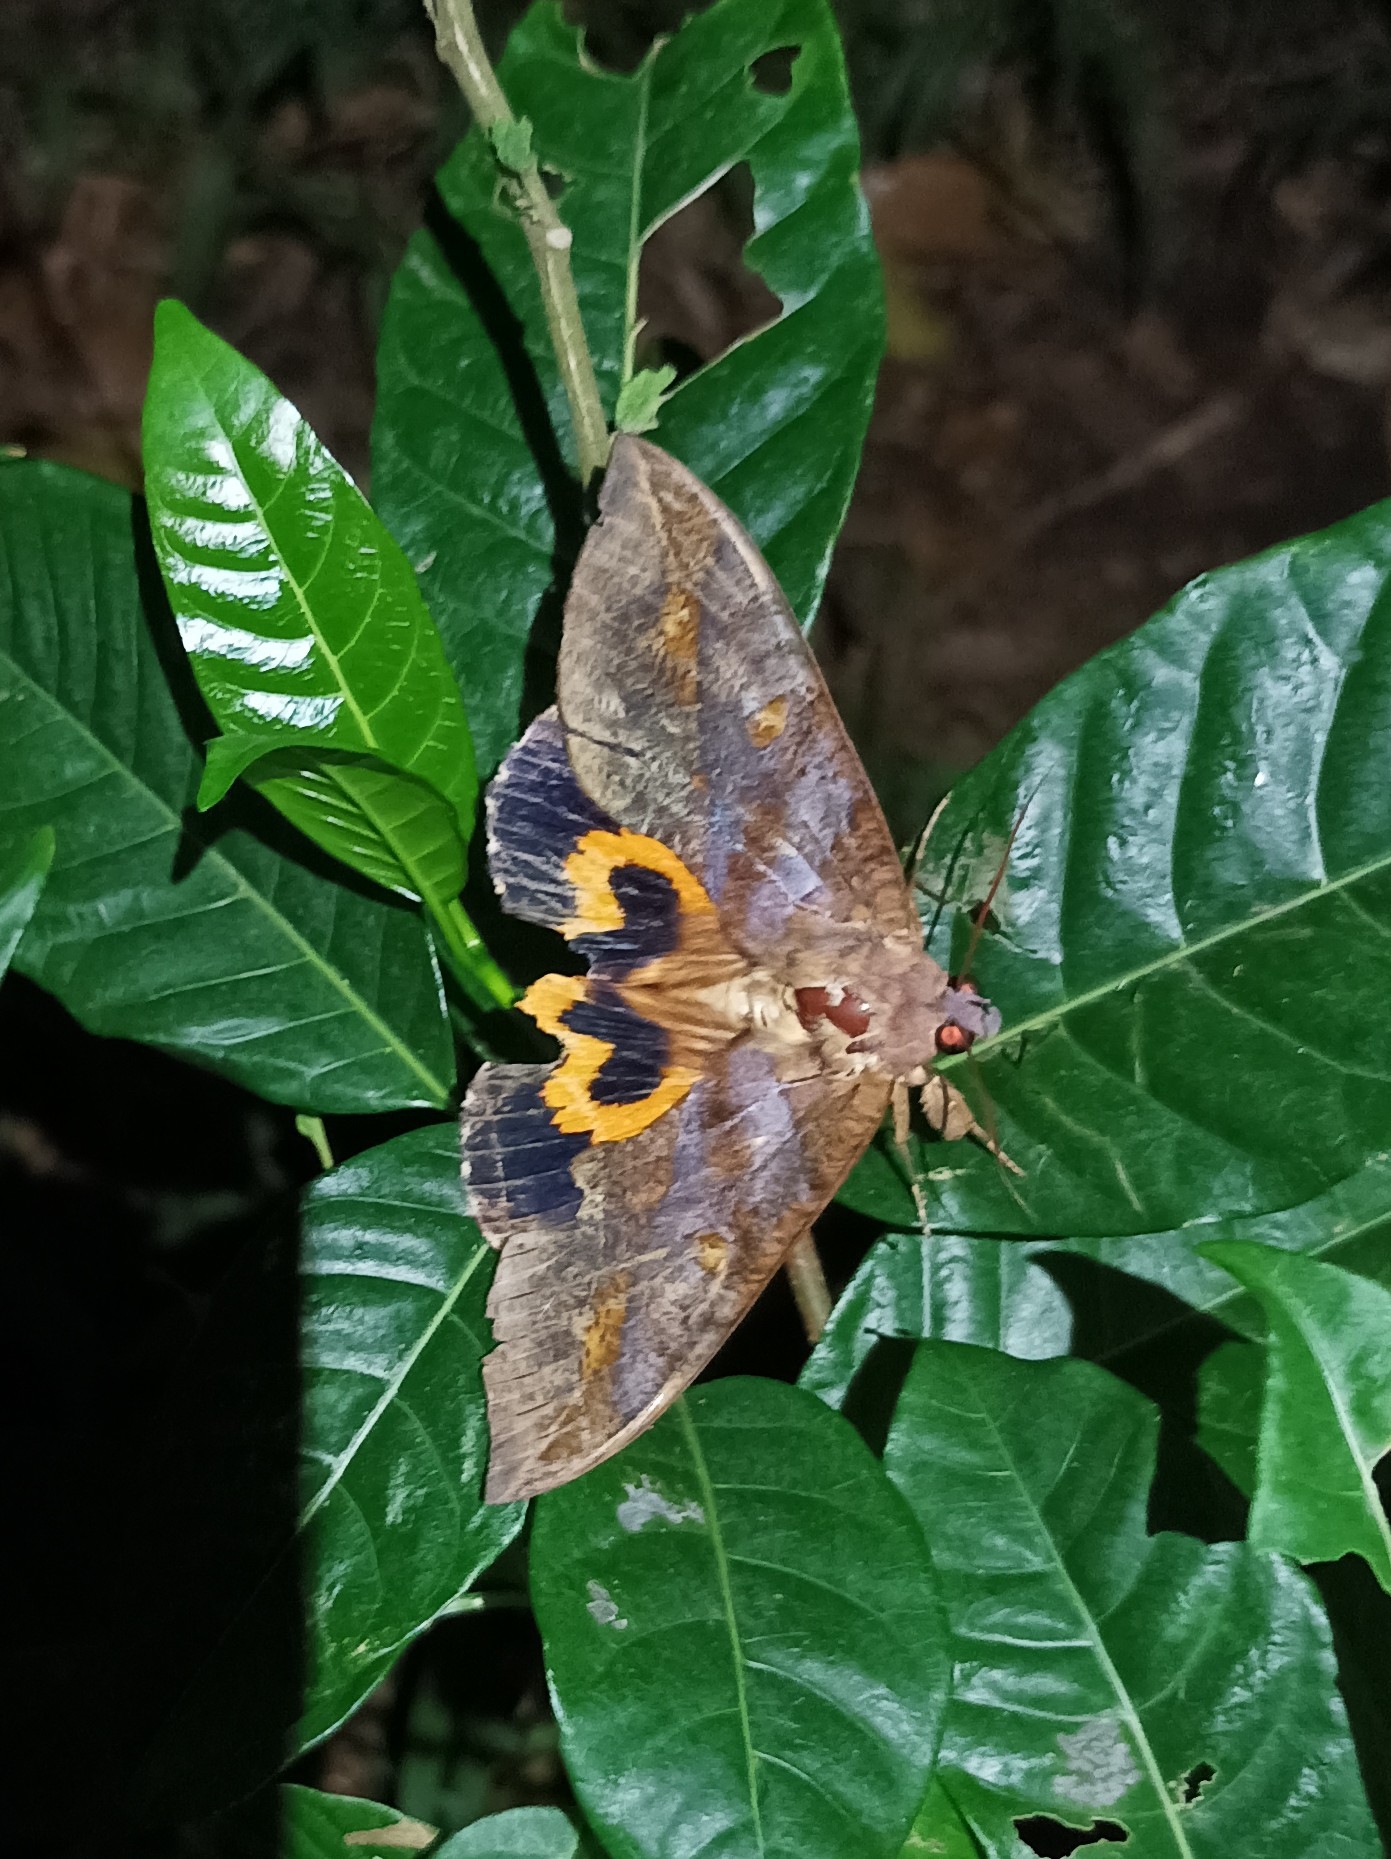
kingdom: Animalia
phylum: Arthropoda
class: Insecta
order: Lepidoptera
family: Erebidae
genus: Eudocima
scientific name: Eudocima phalonia
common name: Wasp
